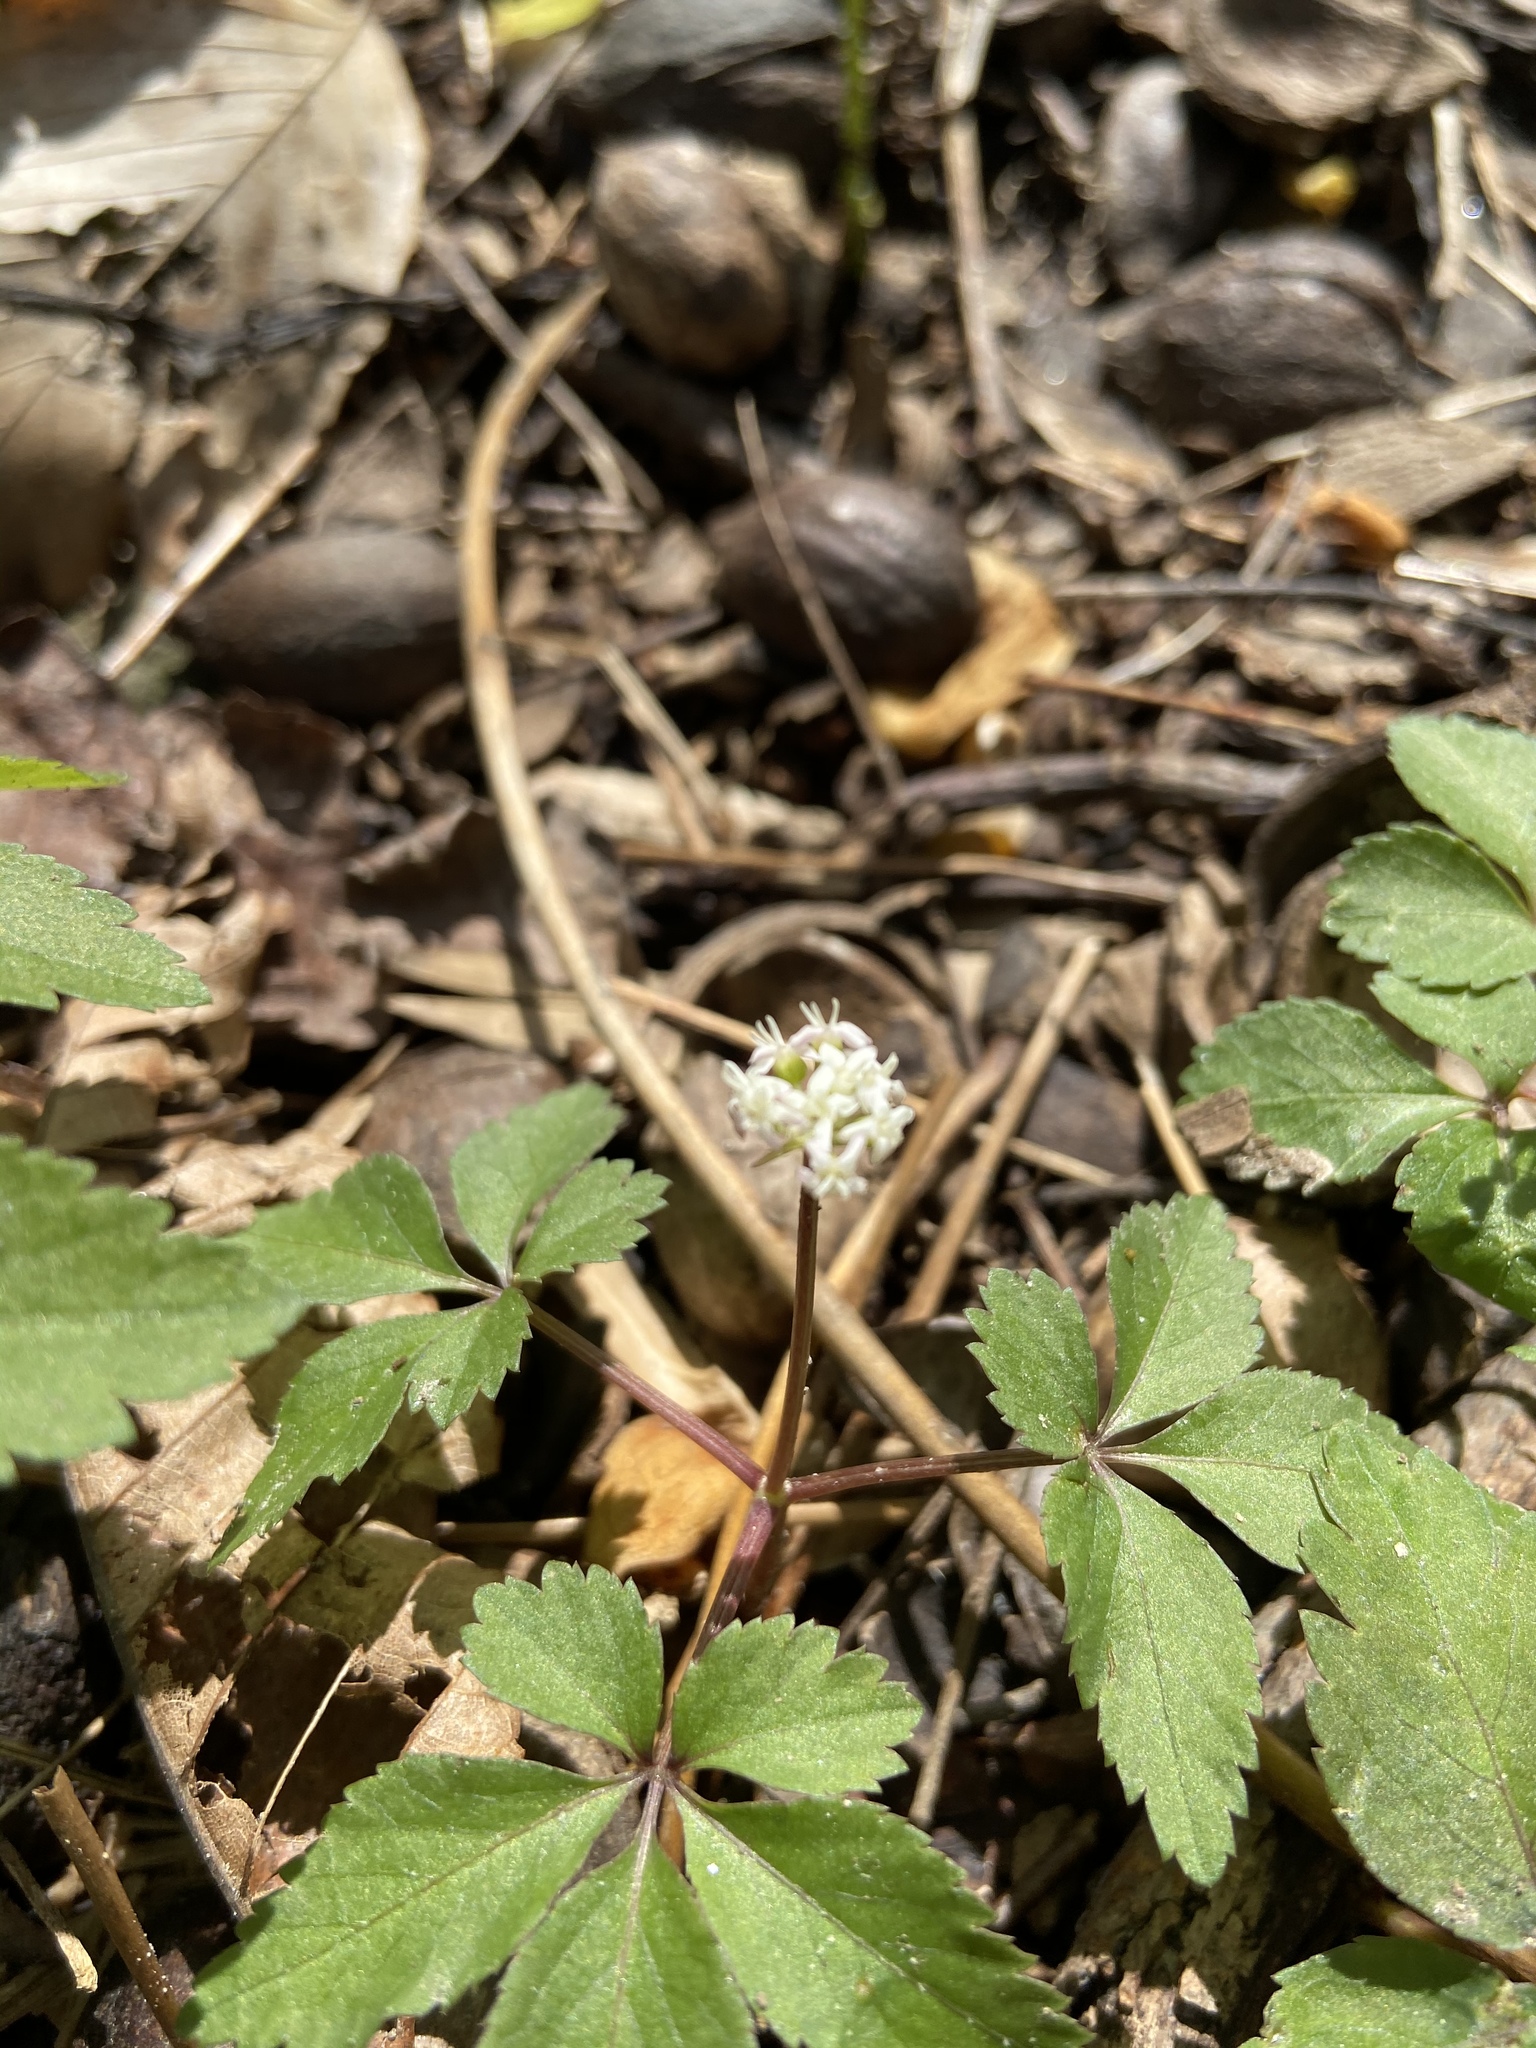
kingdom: Plantae
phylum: Tracheophyta
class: Magnoliopsida
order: Apiales
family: Araliaceae
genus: Panax
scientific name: Panax trifolius
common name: Dwarf ginseng
